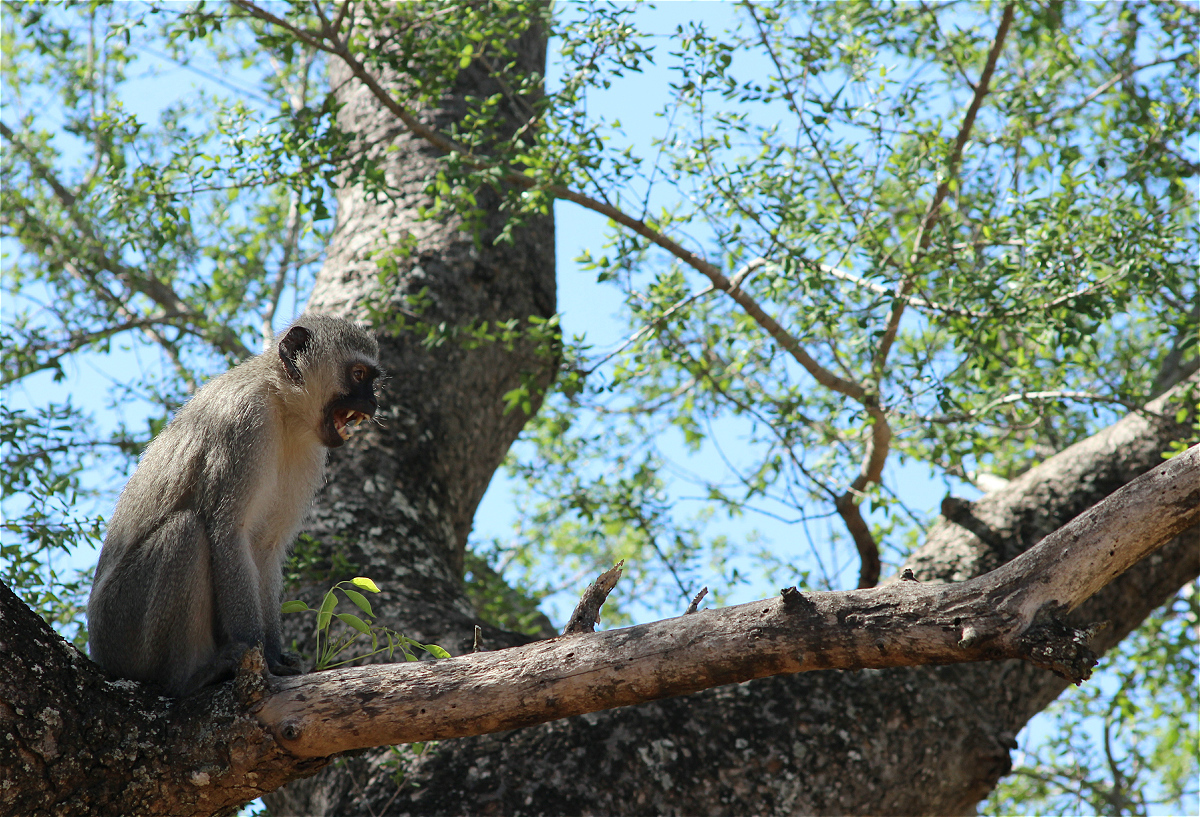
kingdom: Animalia
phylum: Chordata
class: Mammalia
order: Primates
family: Cercopithecidae
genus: Chlorocebus
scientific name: Chlorocebus pygerythrus
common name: Vervet monkey
